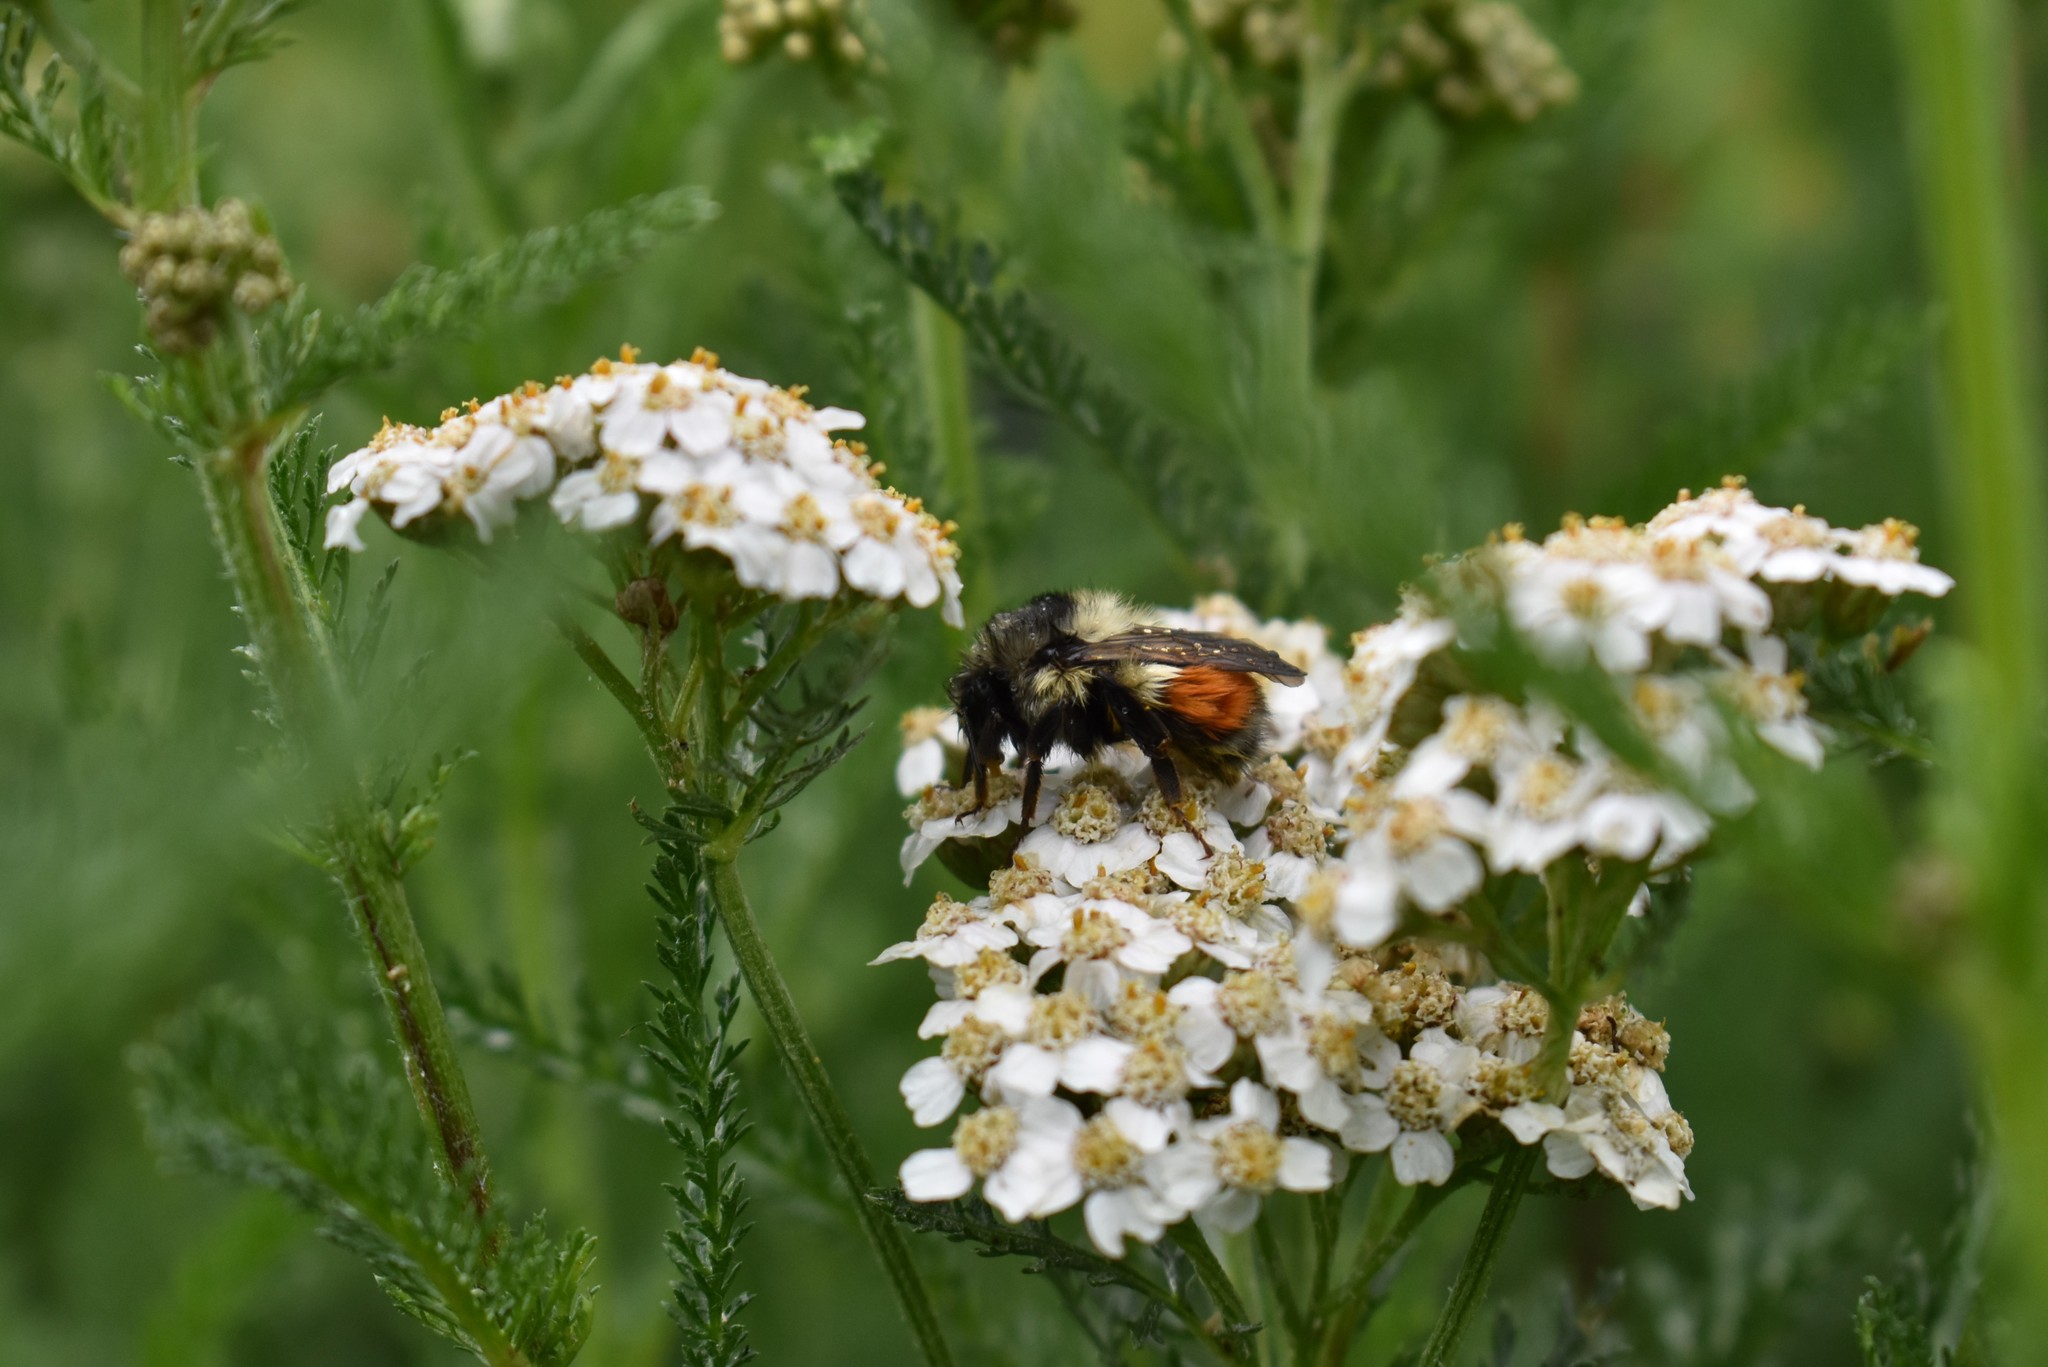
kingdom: Animalia
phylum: Arthropoda
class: Insecta
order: Hymenoptera
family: Apidae
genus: Bombus
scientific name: Bombus melanopygus
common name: Black tail bumble bee
